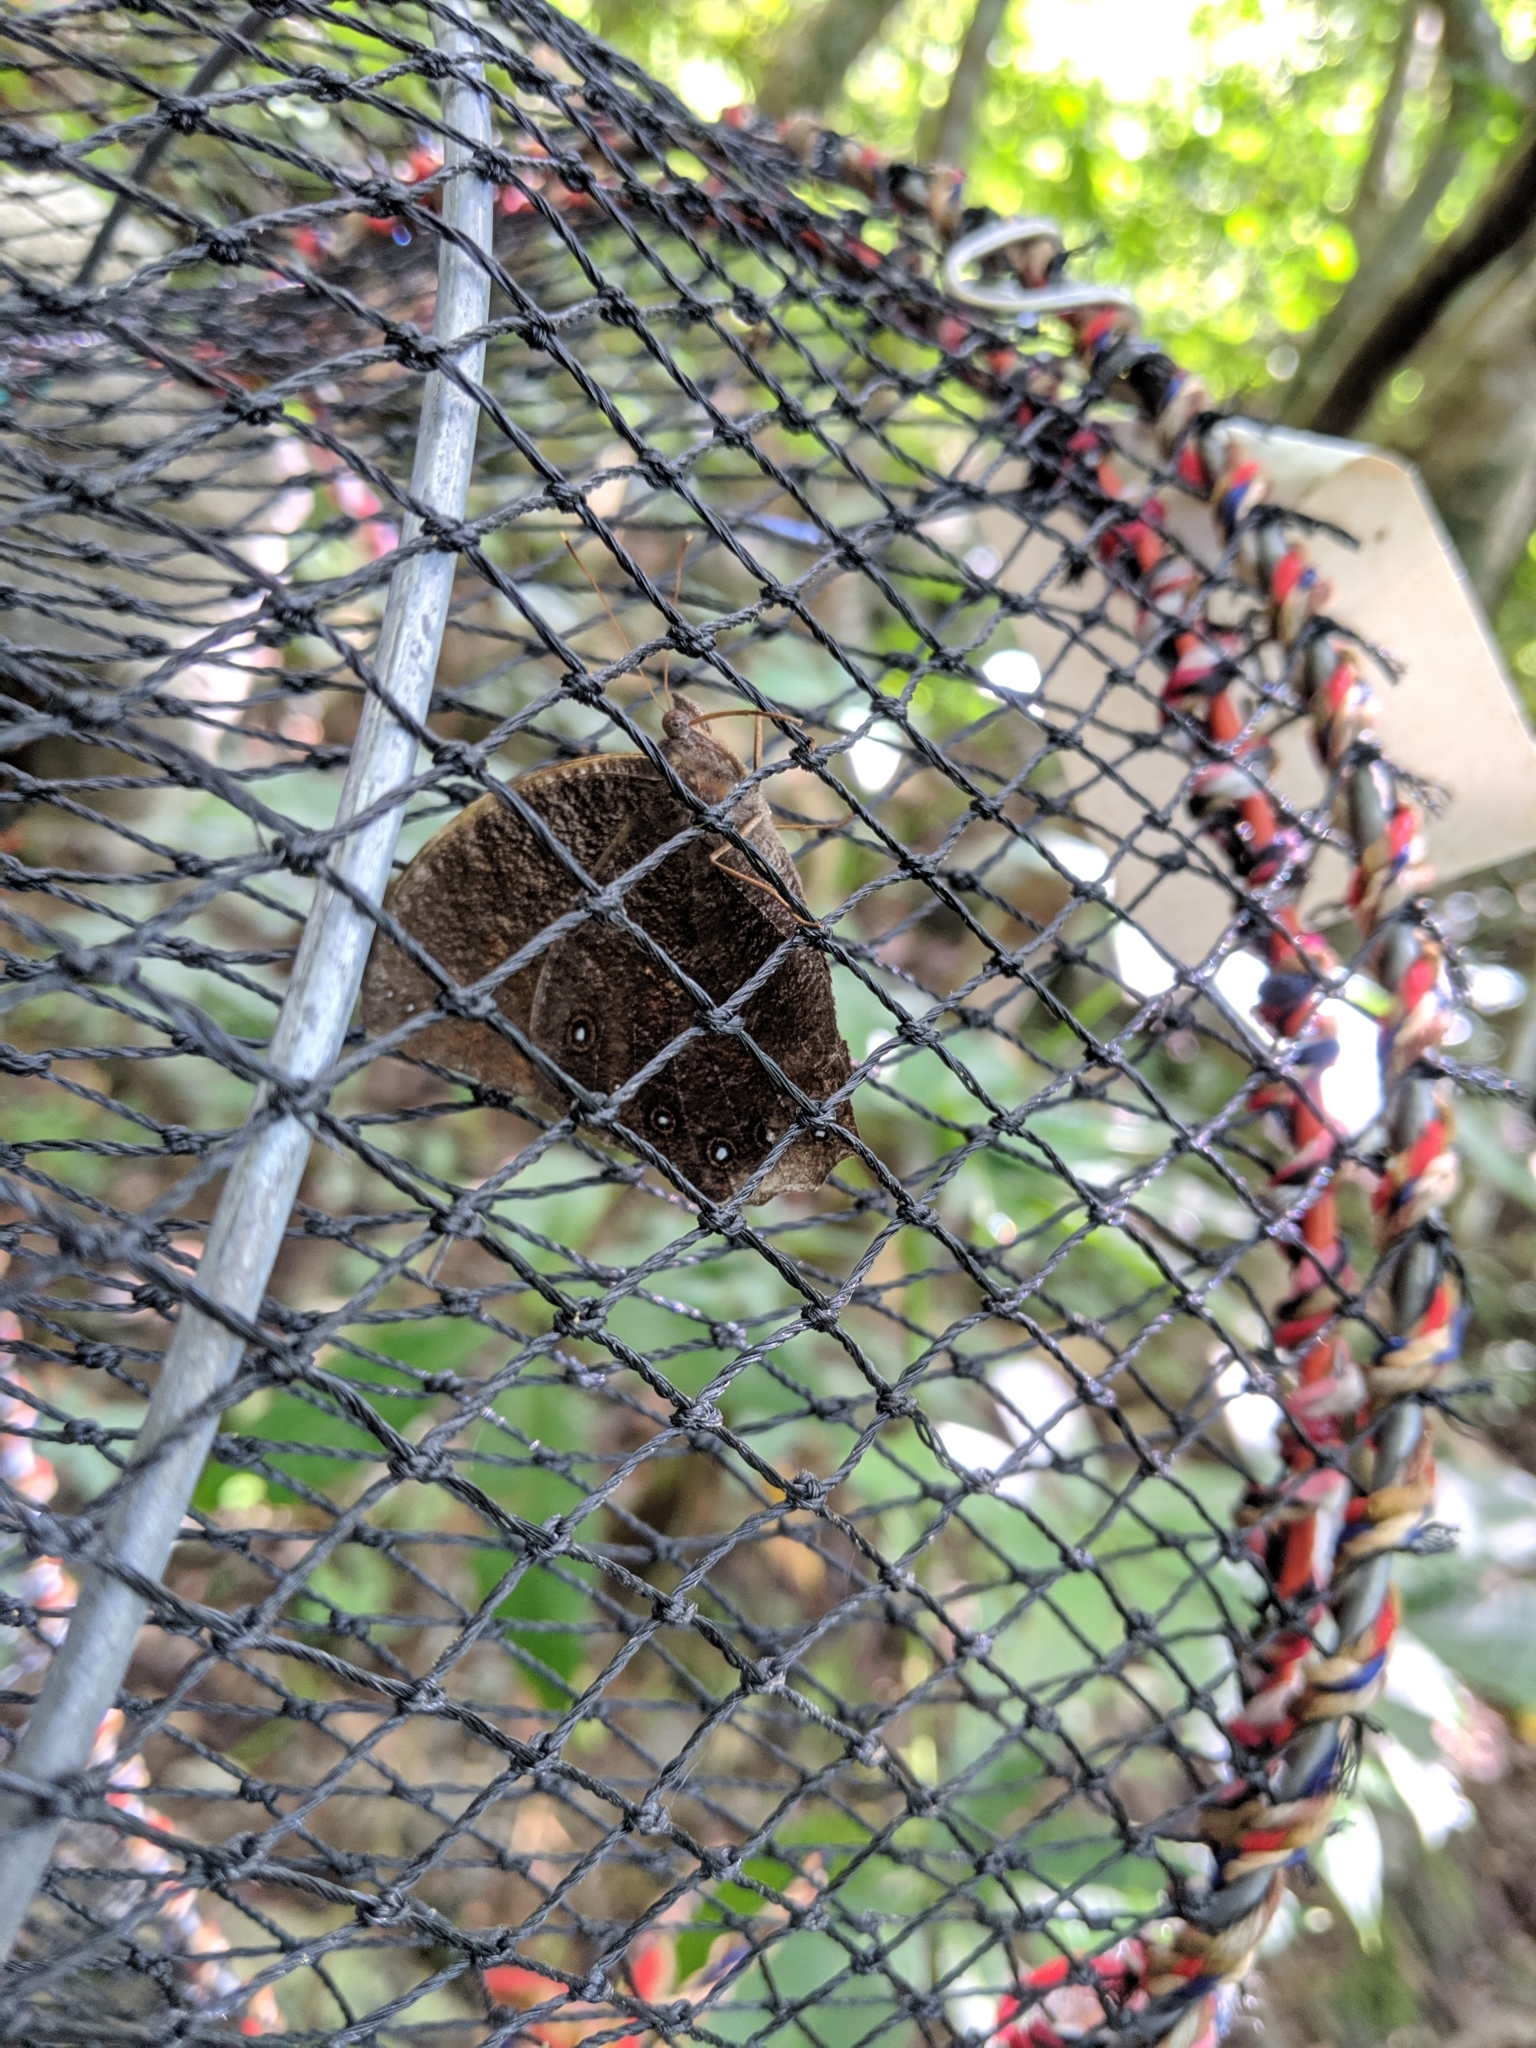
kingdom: Animalia
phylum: Arthropoda
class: Insecta
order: Lepidoptera
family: Nymphalidae
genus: Melanitis
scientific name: Melanitis phedima
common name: Dark evening brown
